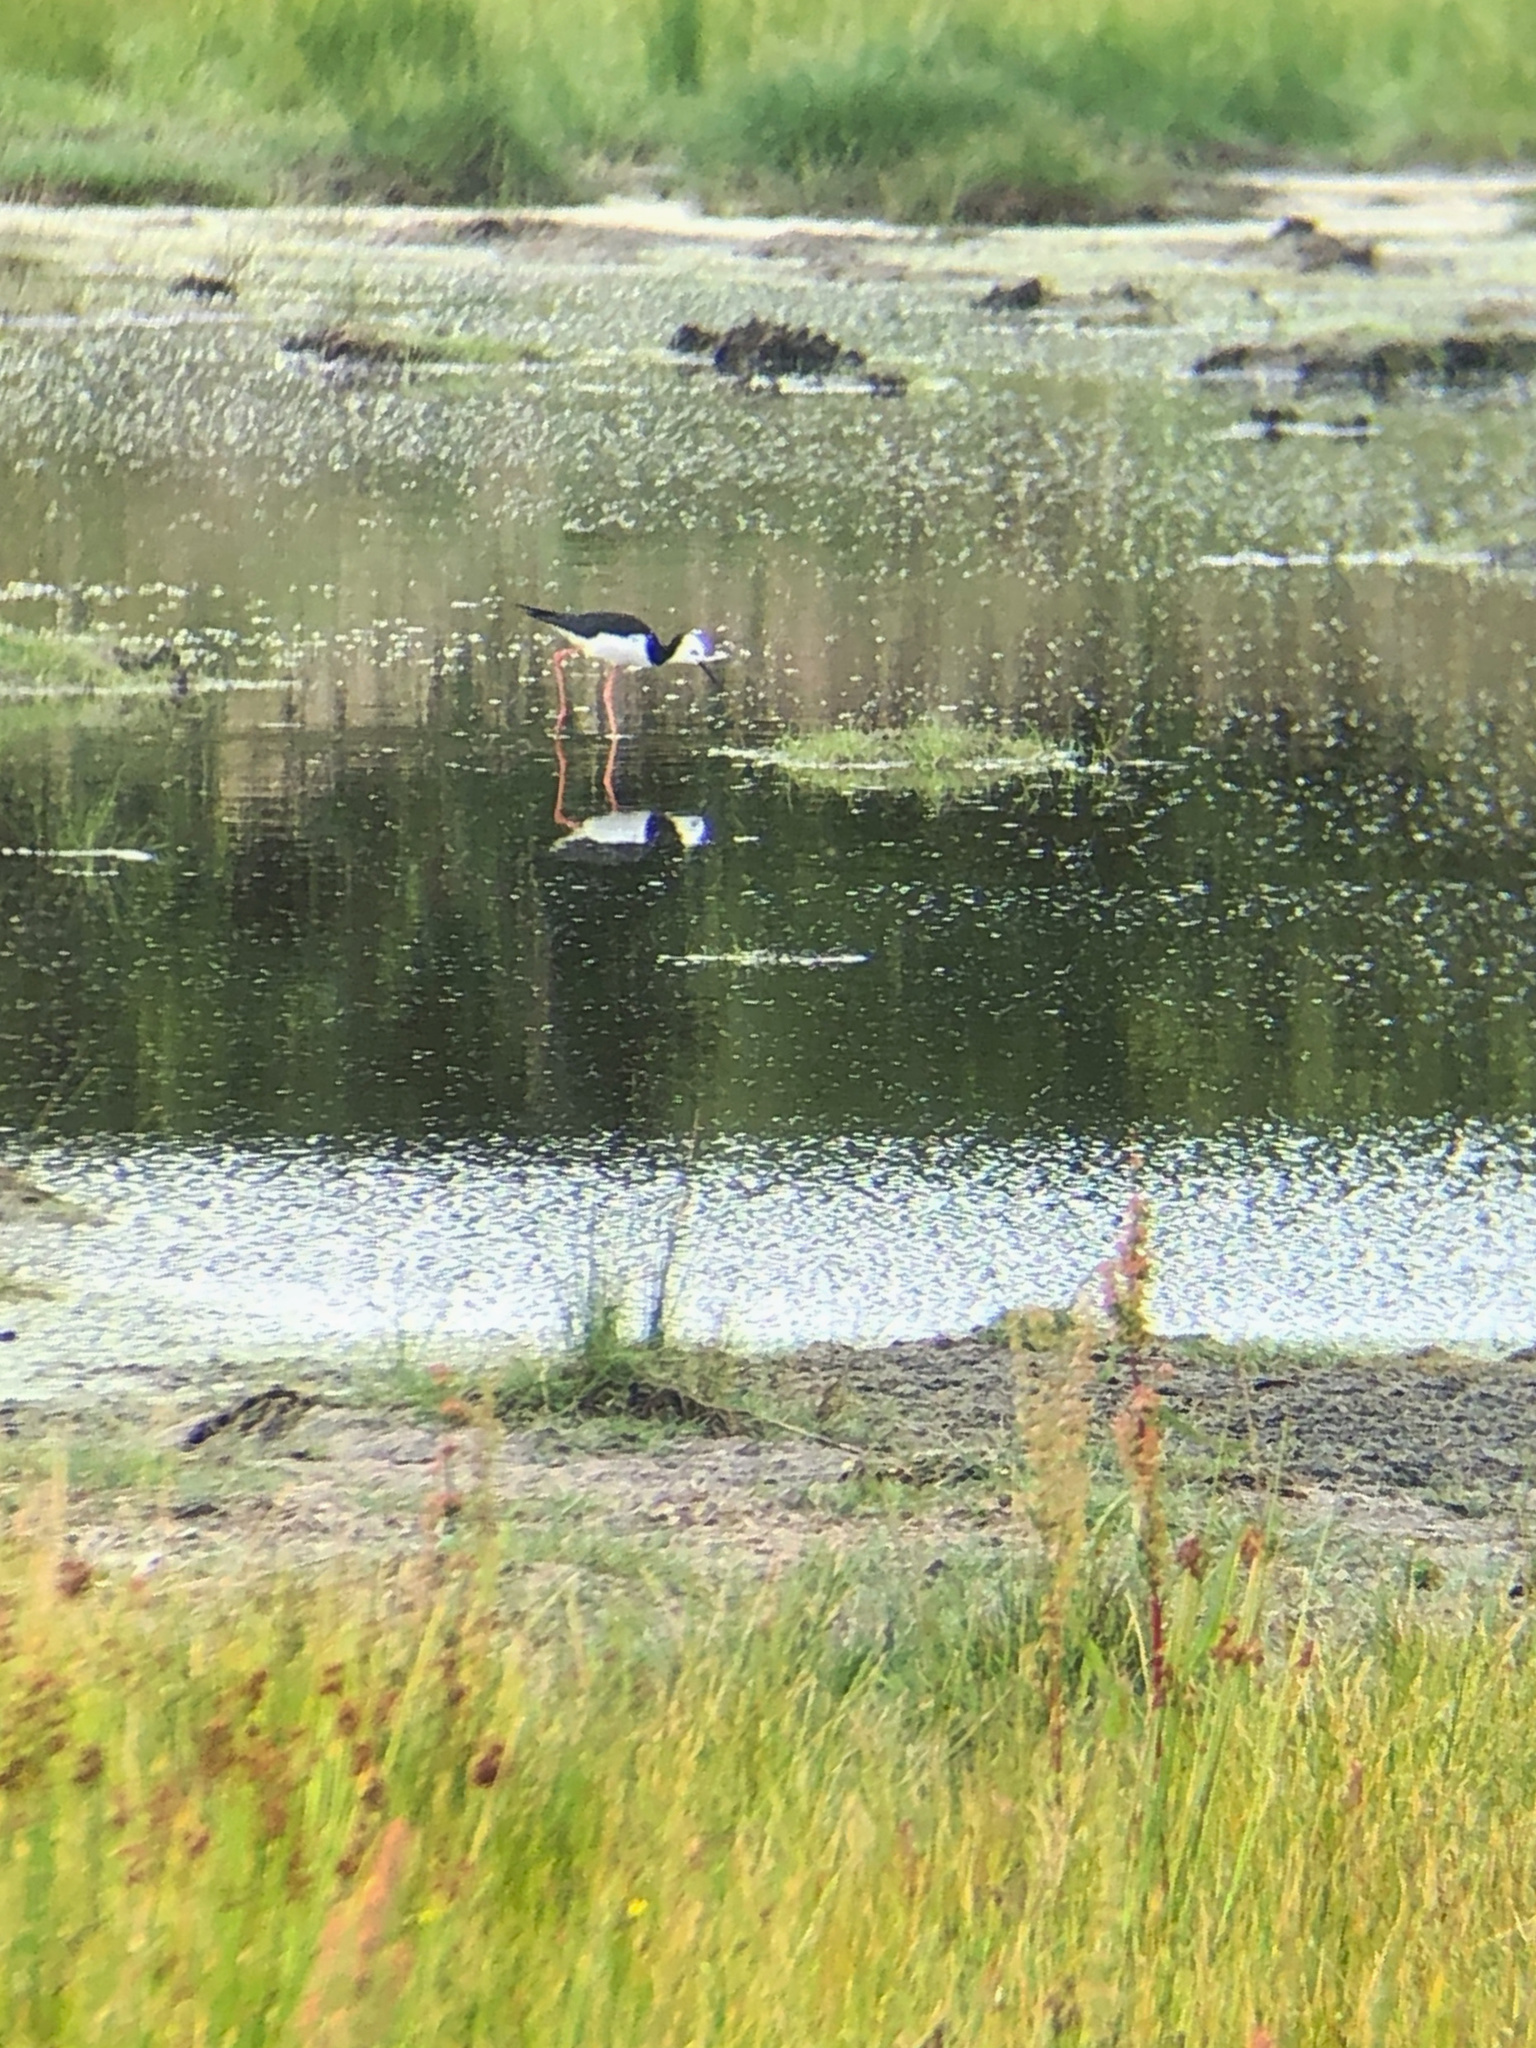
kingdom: Animalia
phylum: Chordata
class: Aves
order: Charadriiformes
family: Recurvirostridae
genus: Himantopus
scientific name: Himantopus leucocephalus
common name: White-headed stilt
